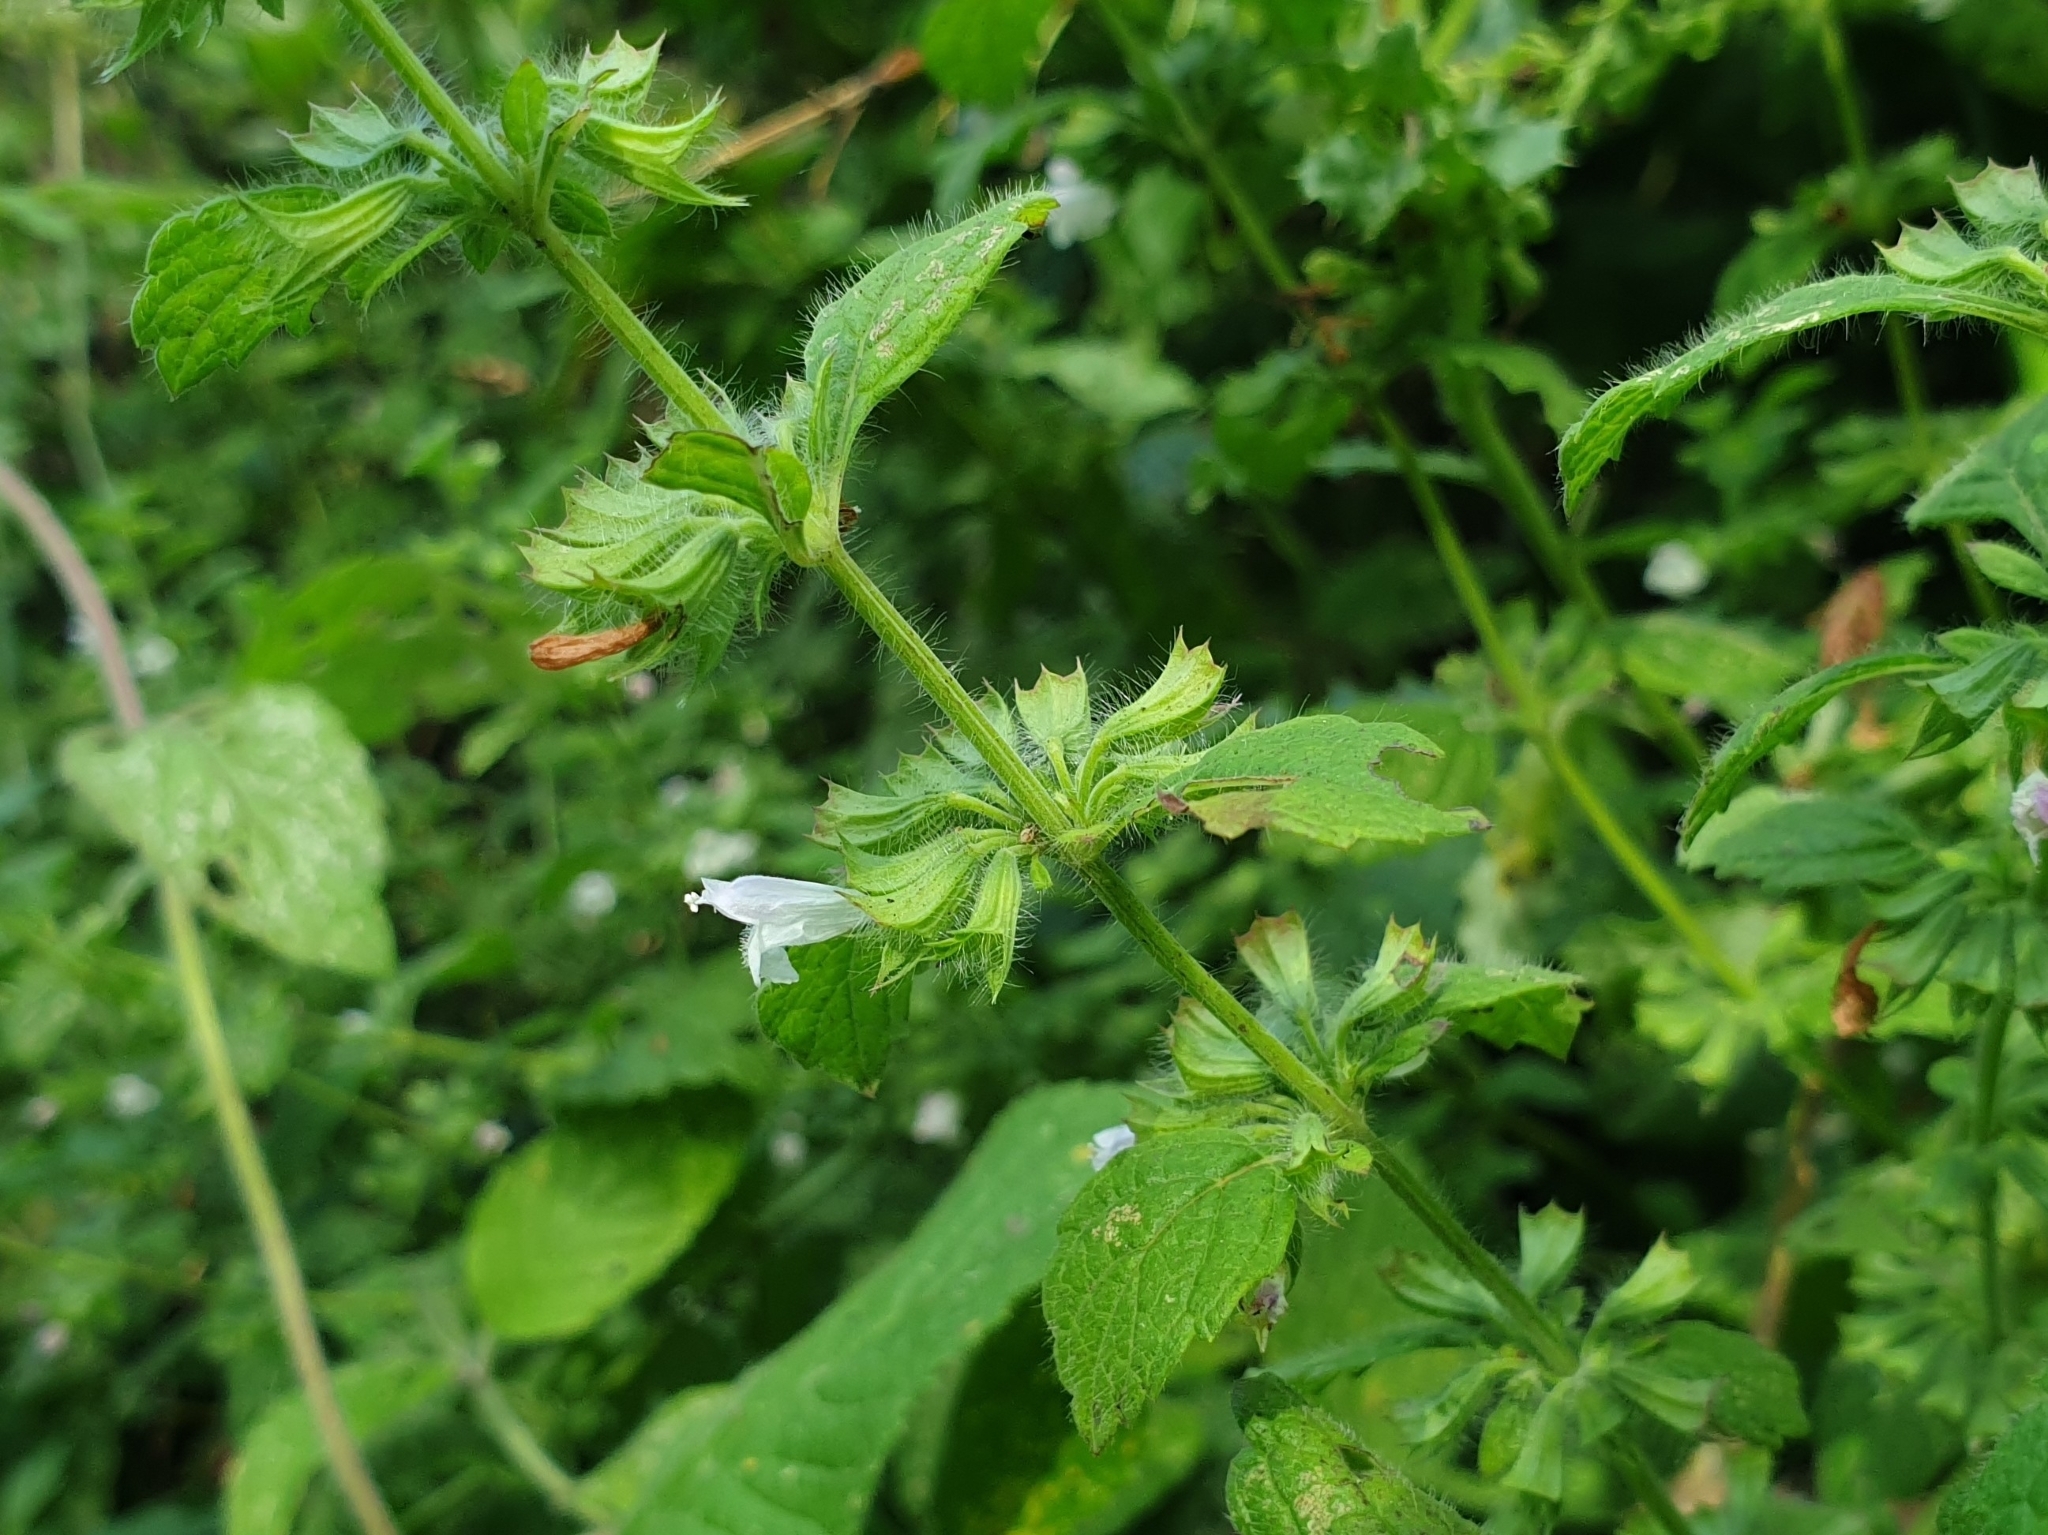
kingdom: Plantae
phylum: Tracheophyta
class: Magnoliopsida
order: Lamiales
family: Lamiaceae
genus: Melissa
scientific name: Melissa officinalis
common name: Balm
